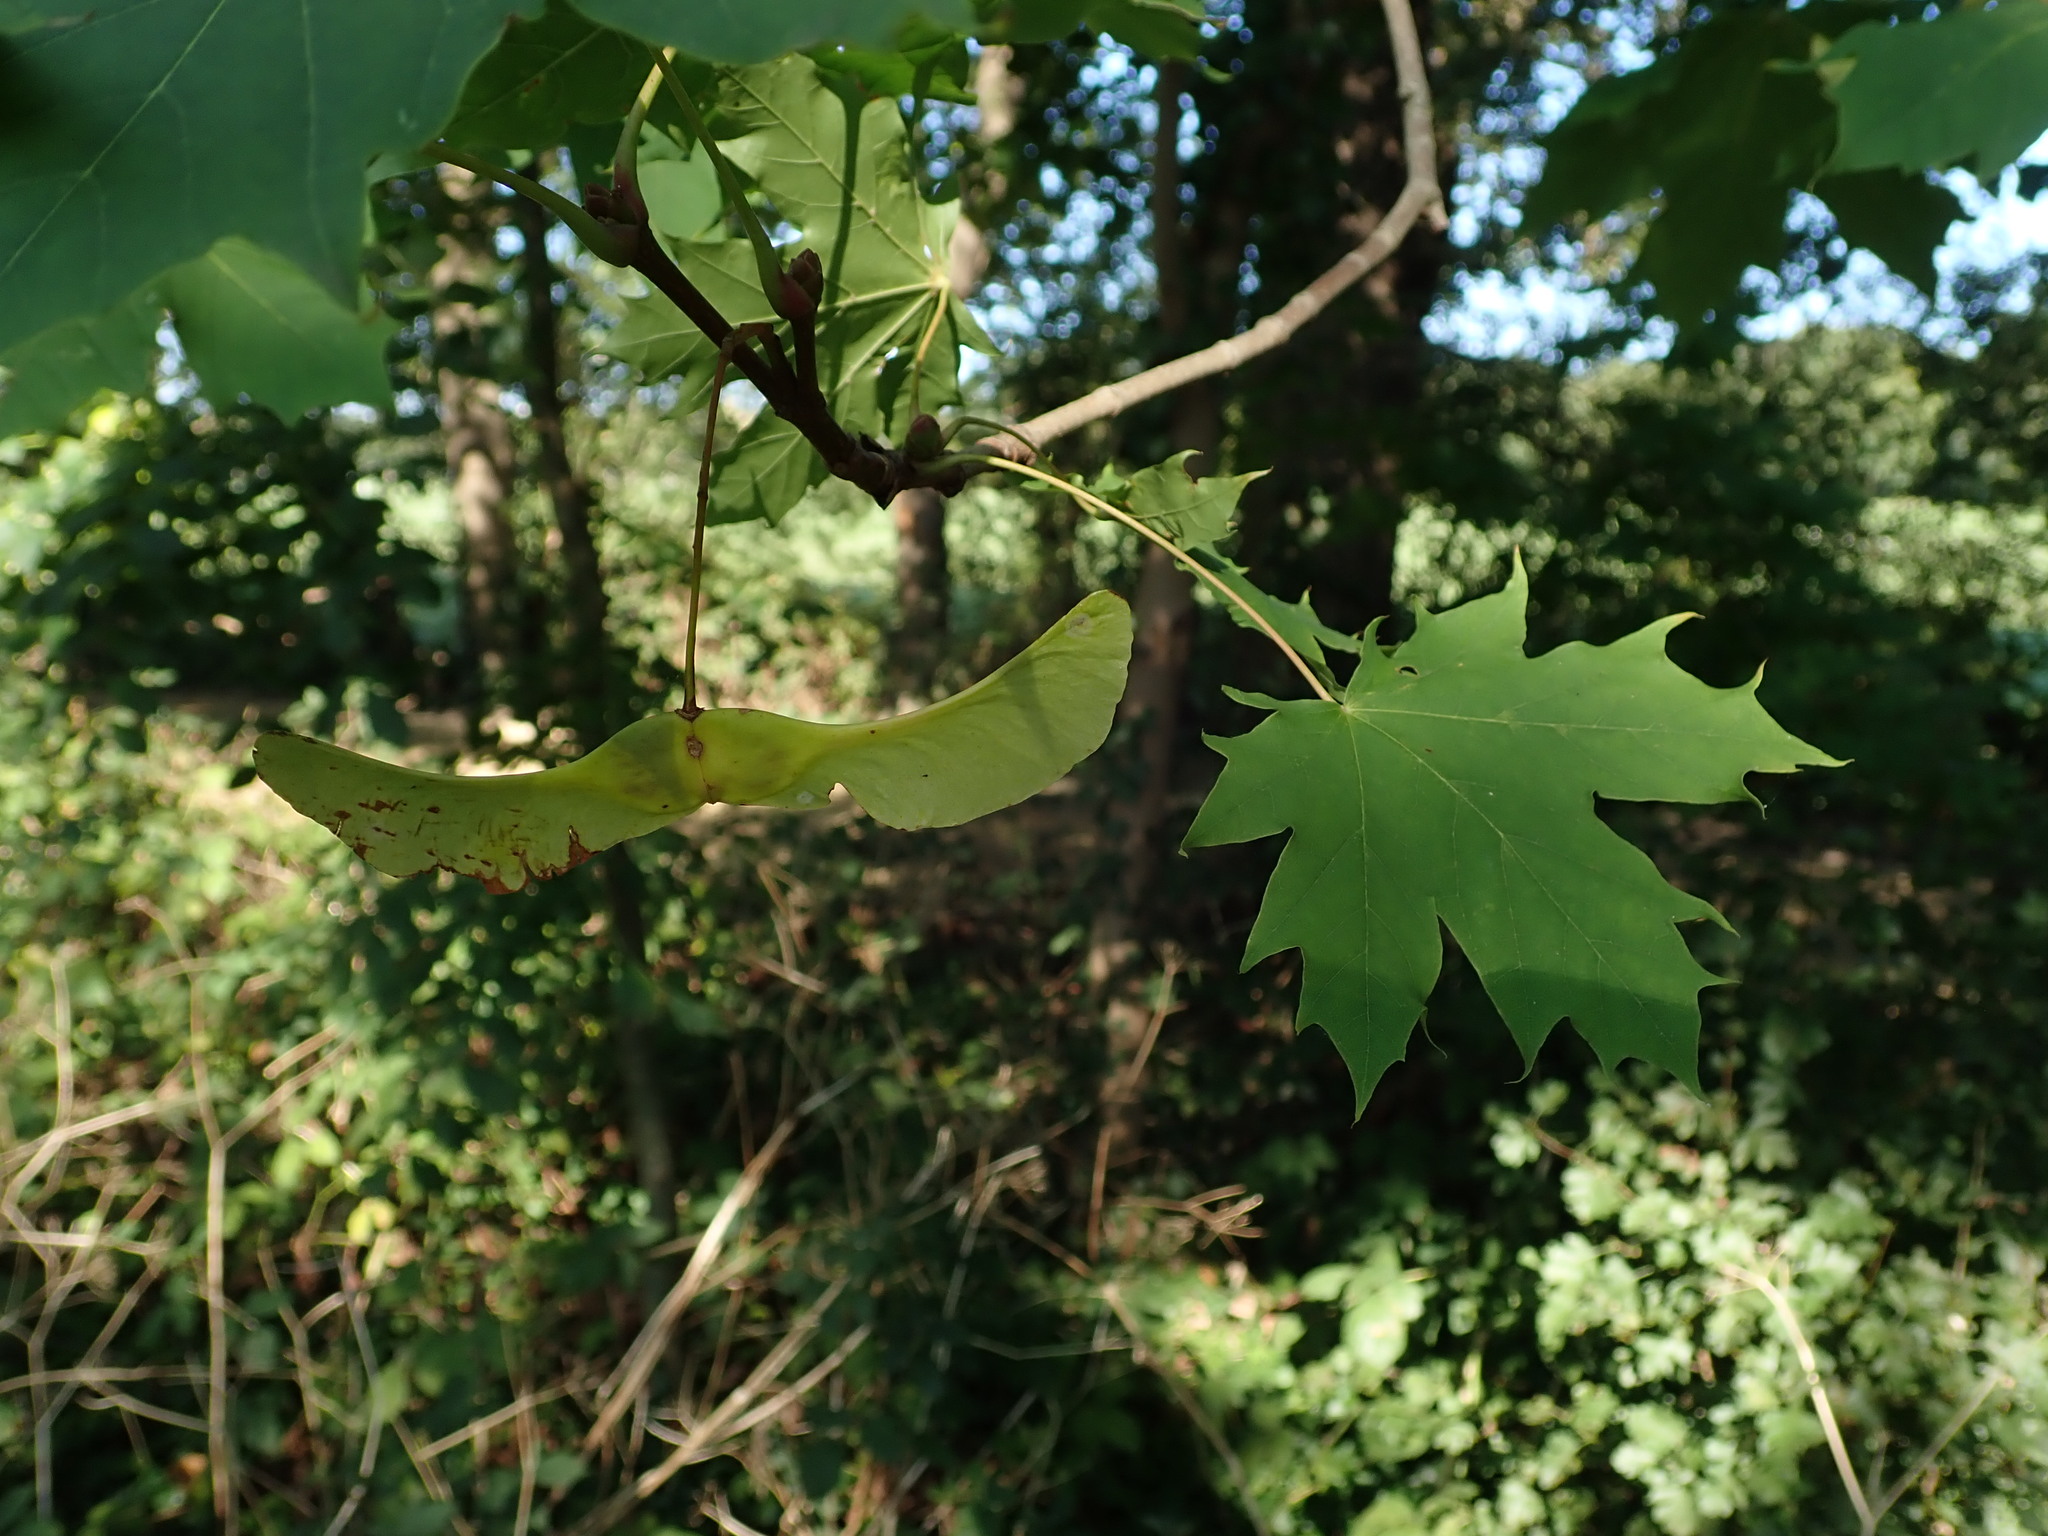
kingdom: Plantae
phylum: Tracheophyta
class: Magnoliopsida
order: Sapindales
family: Sapindaceae
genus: Acer
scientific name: Acer platanoides
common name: Norway maple
